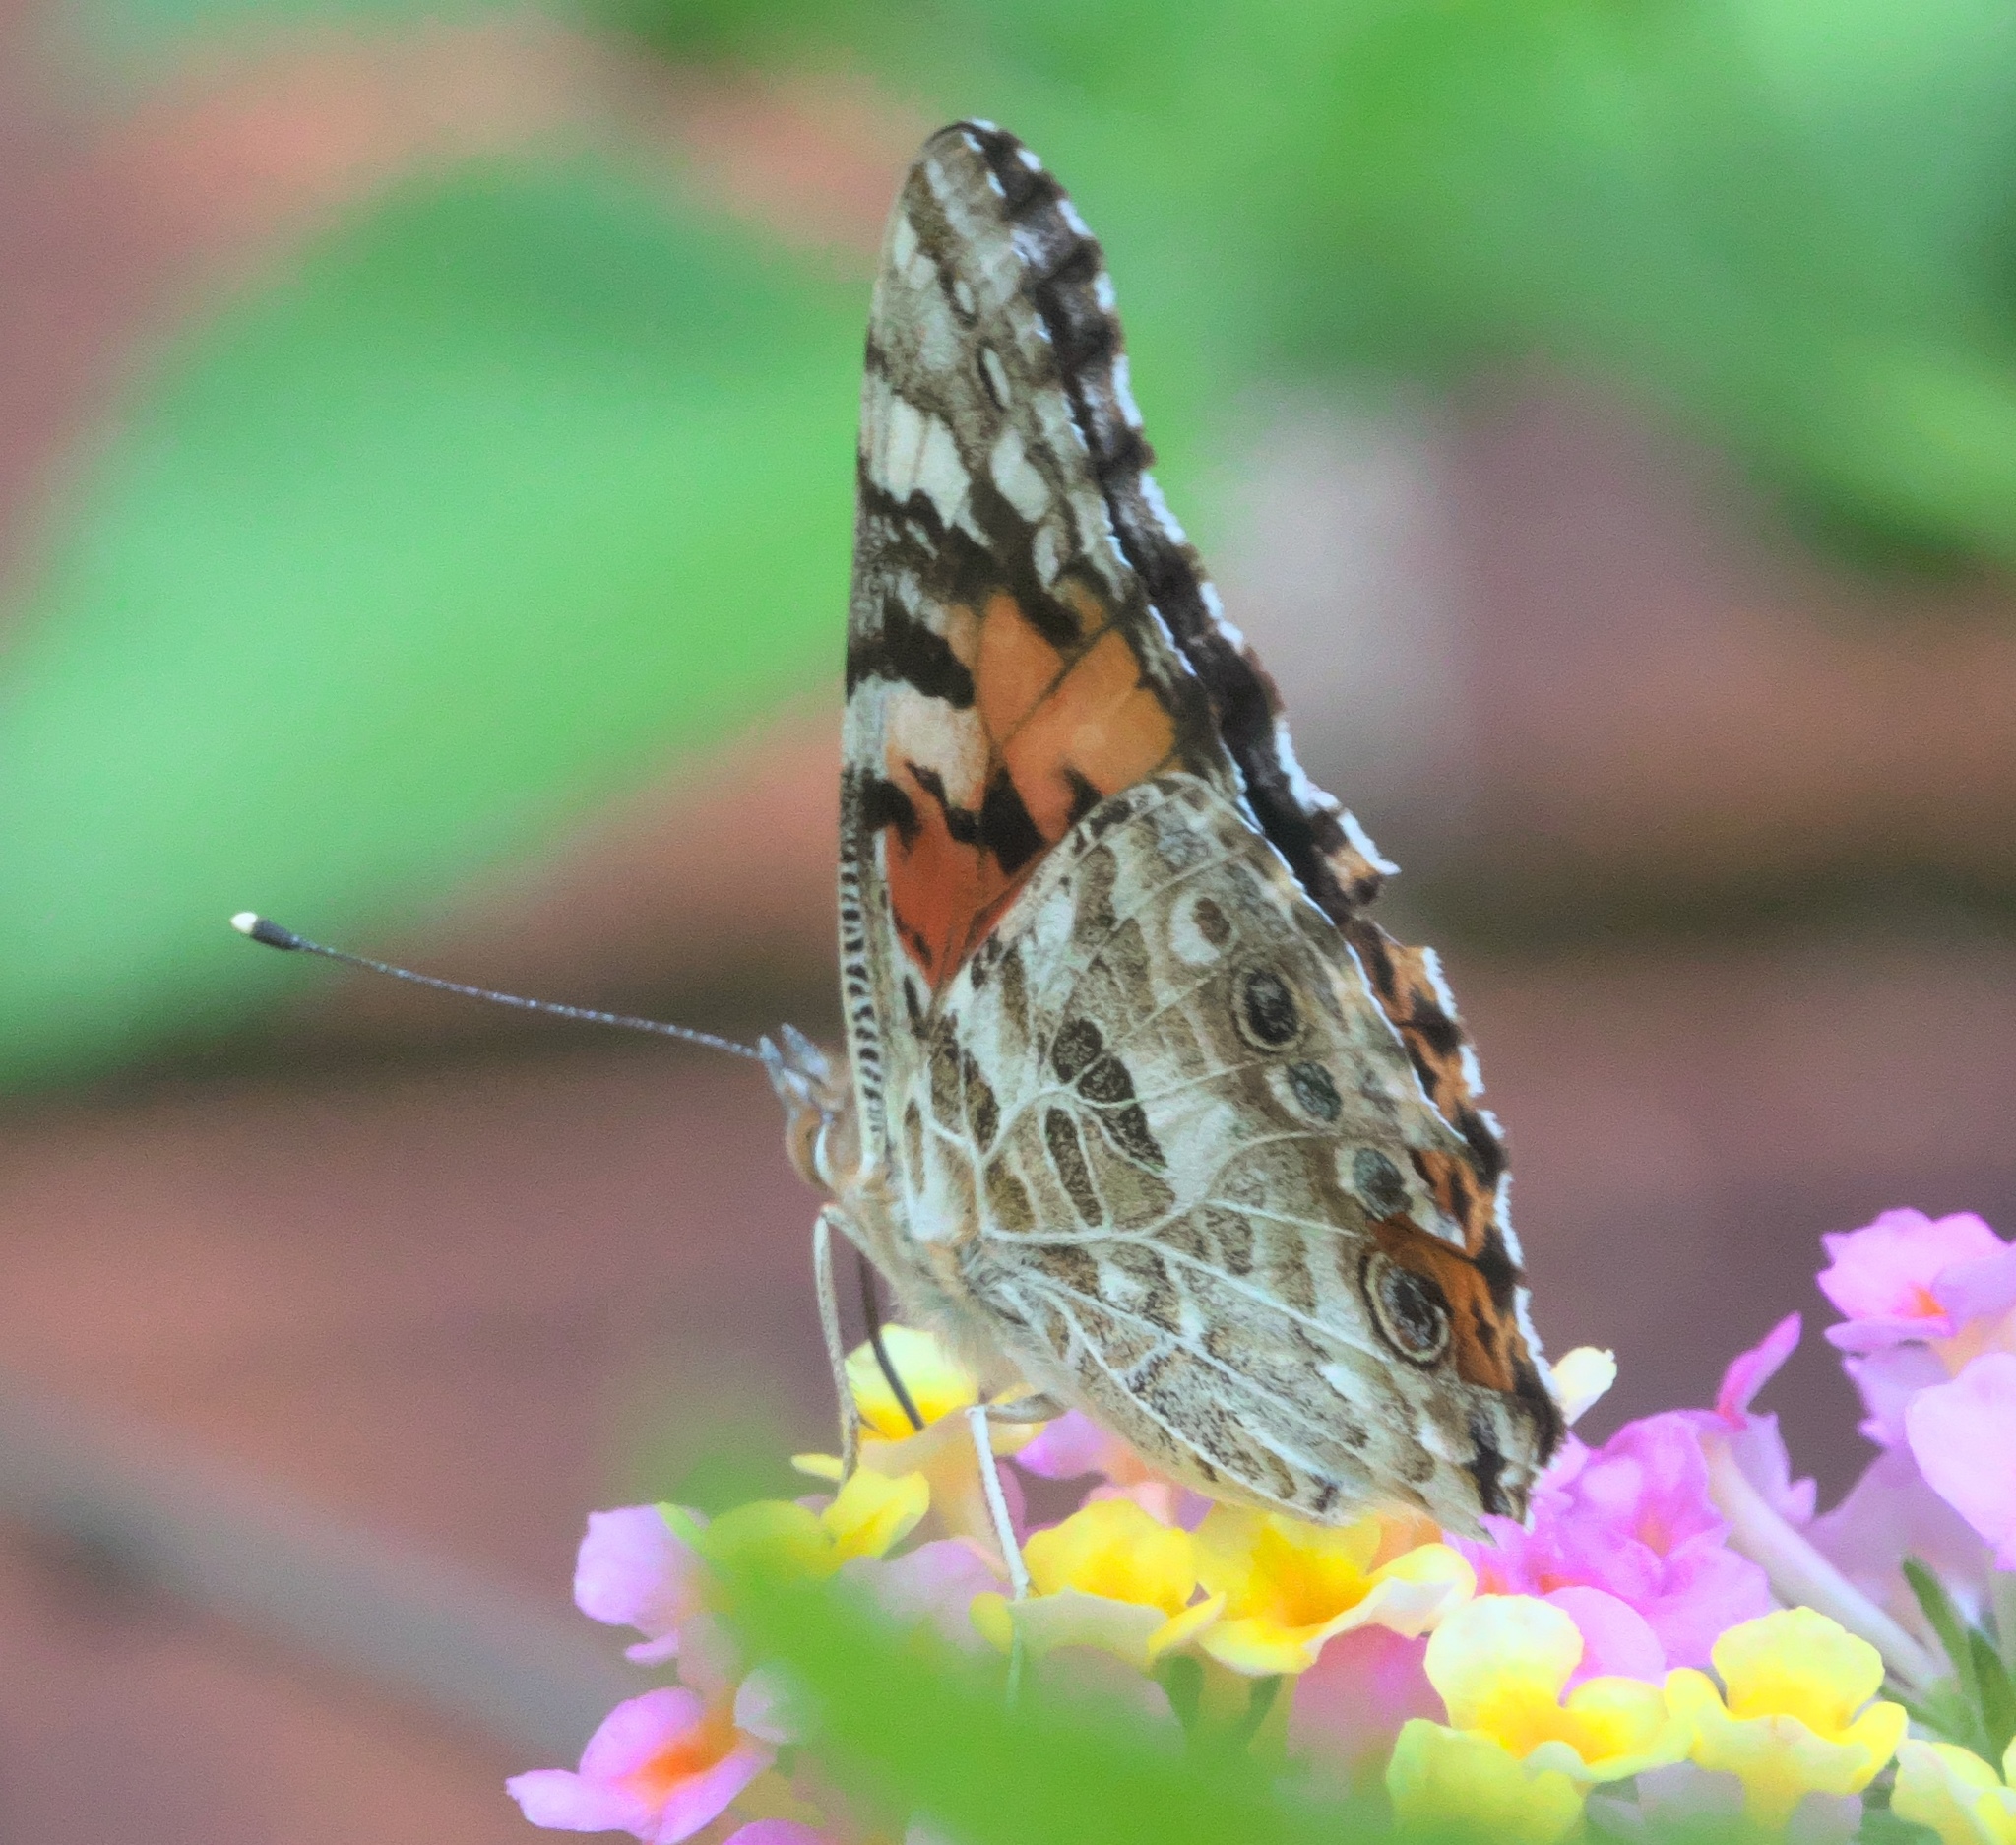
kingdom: Animalia
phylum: Arthropoda
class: Insecta
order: Lepidoptera
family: Nymphalidae
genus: Vanessa
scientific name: Vanessa cardui
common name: Painted lady
